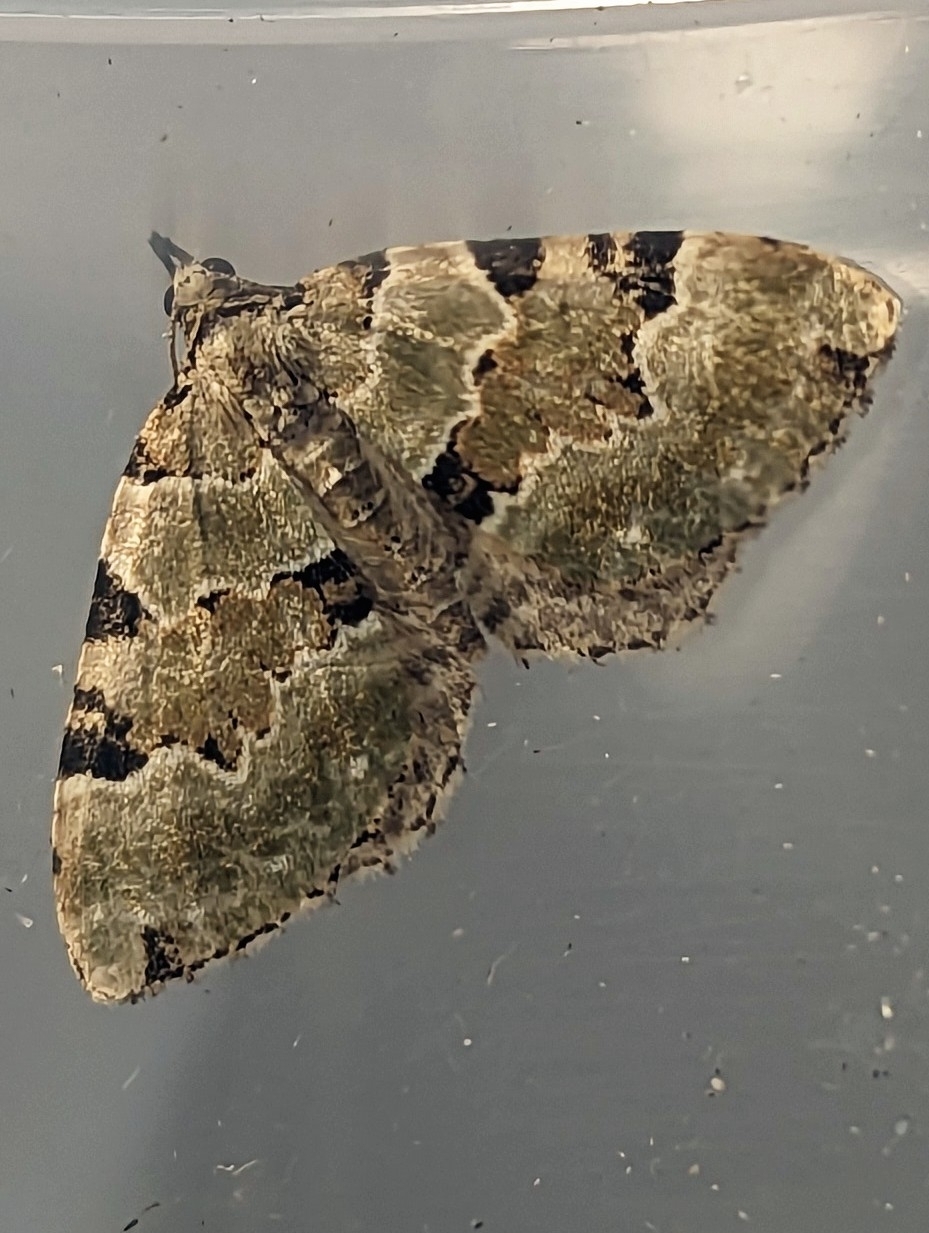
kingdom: Animalia
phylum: Arthropoda
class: Insecta
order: Lepidoptera
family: Geometridae
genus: Colostygia
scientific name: Colostygia pectinataria
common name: Green carpet
